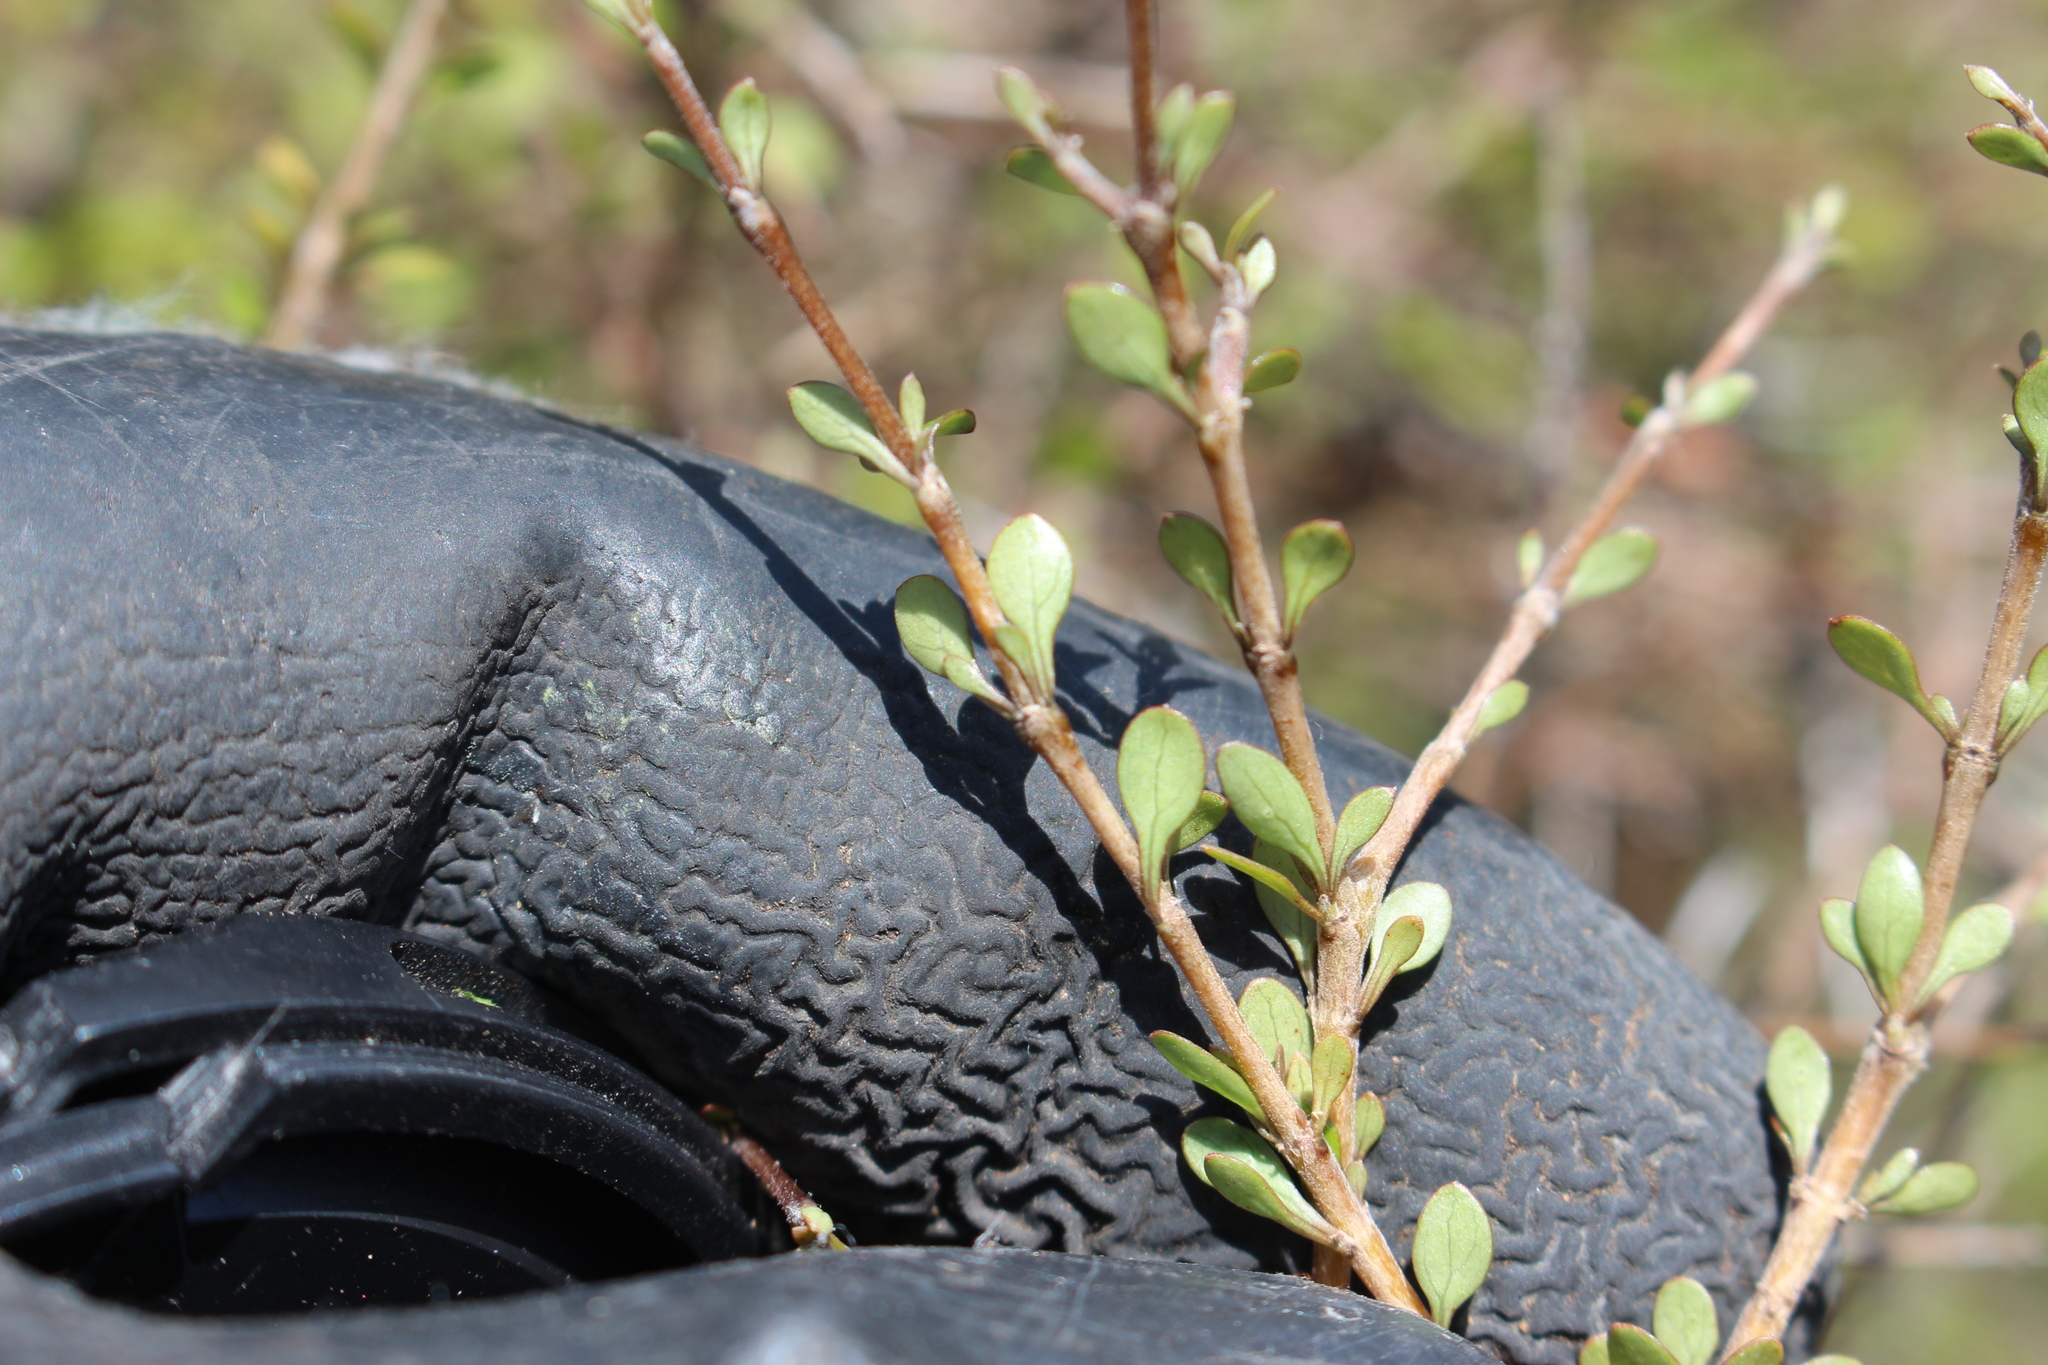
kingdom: Plantae
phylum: Tracheophyta
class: Magnoliopsida
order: Gentianales
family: Rubiaceae
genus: Coprosma
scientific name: Coprosma virescens
